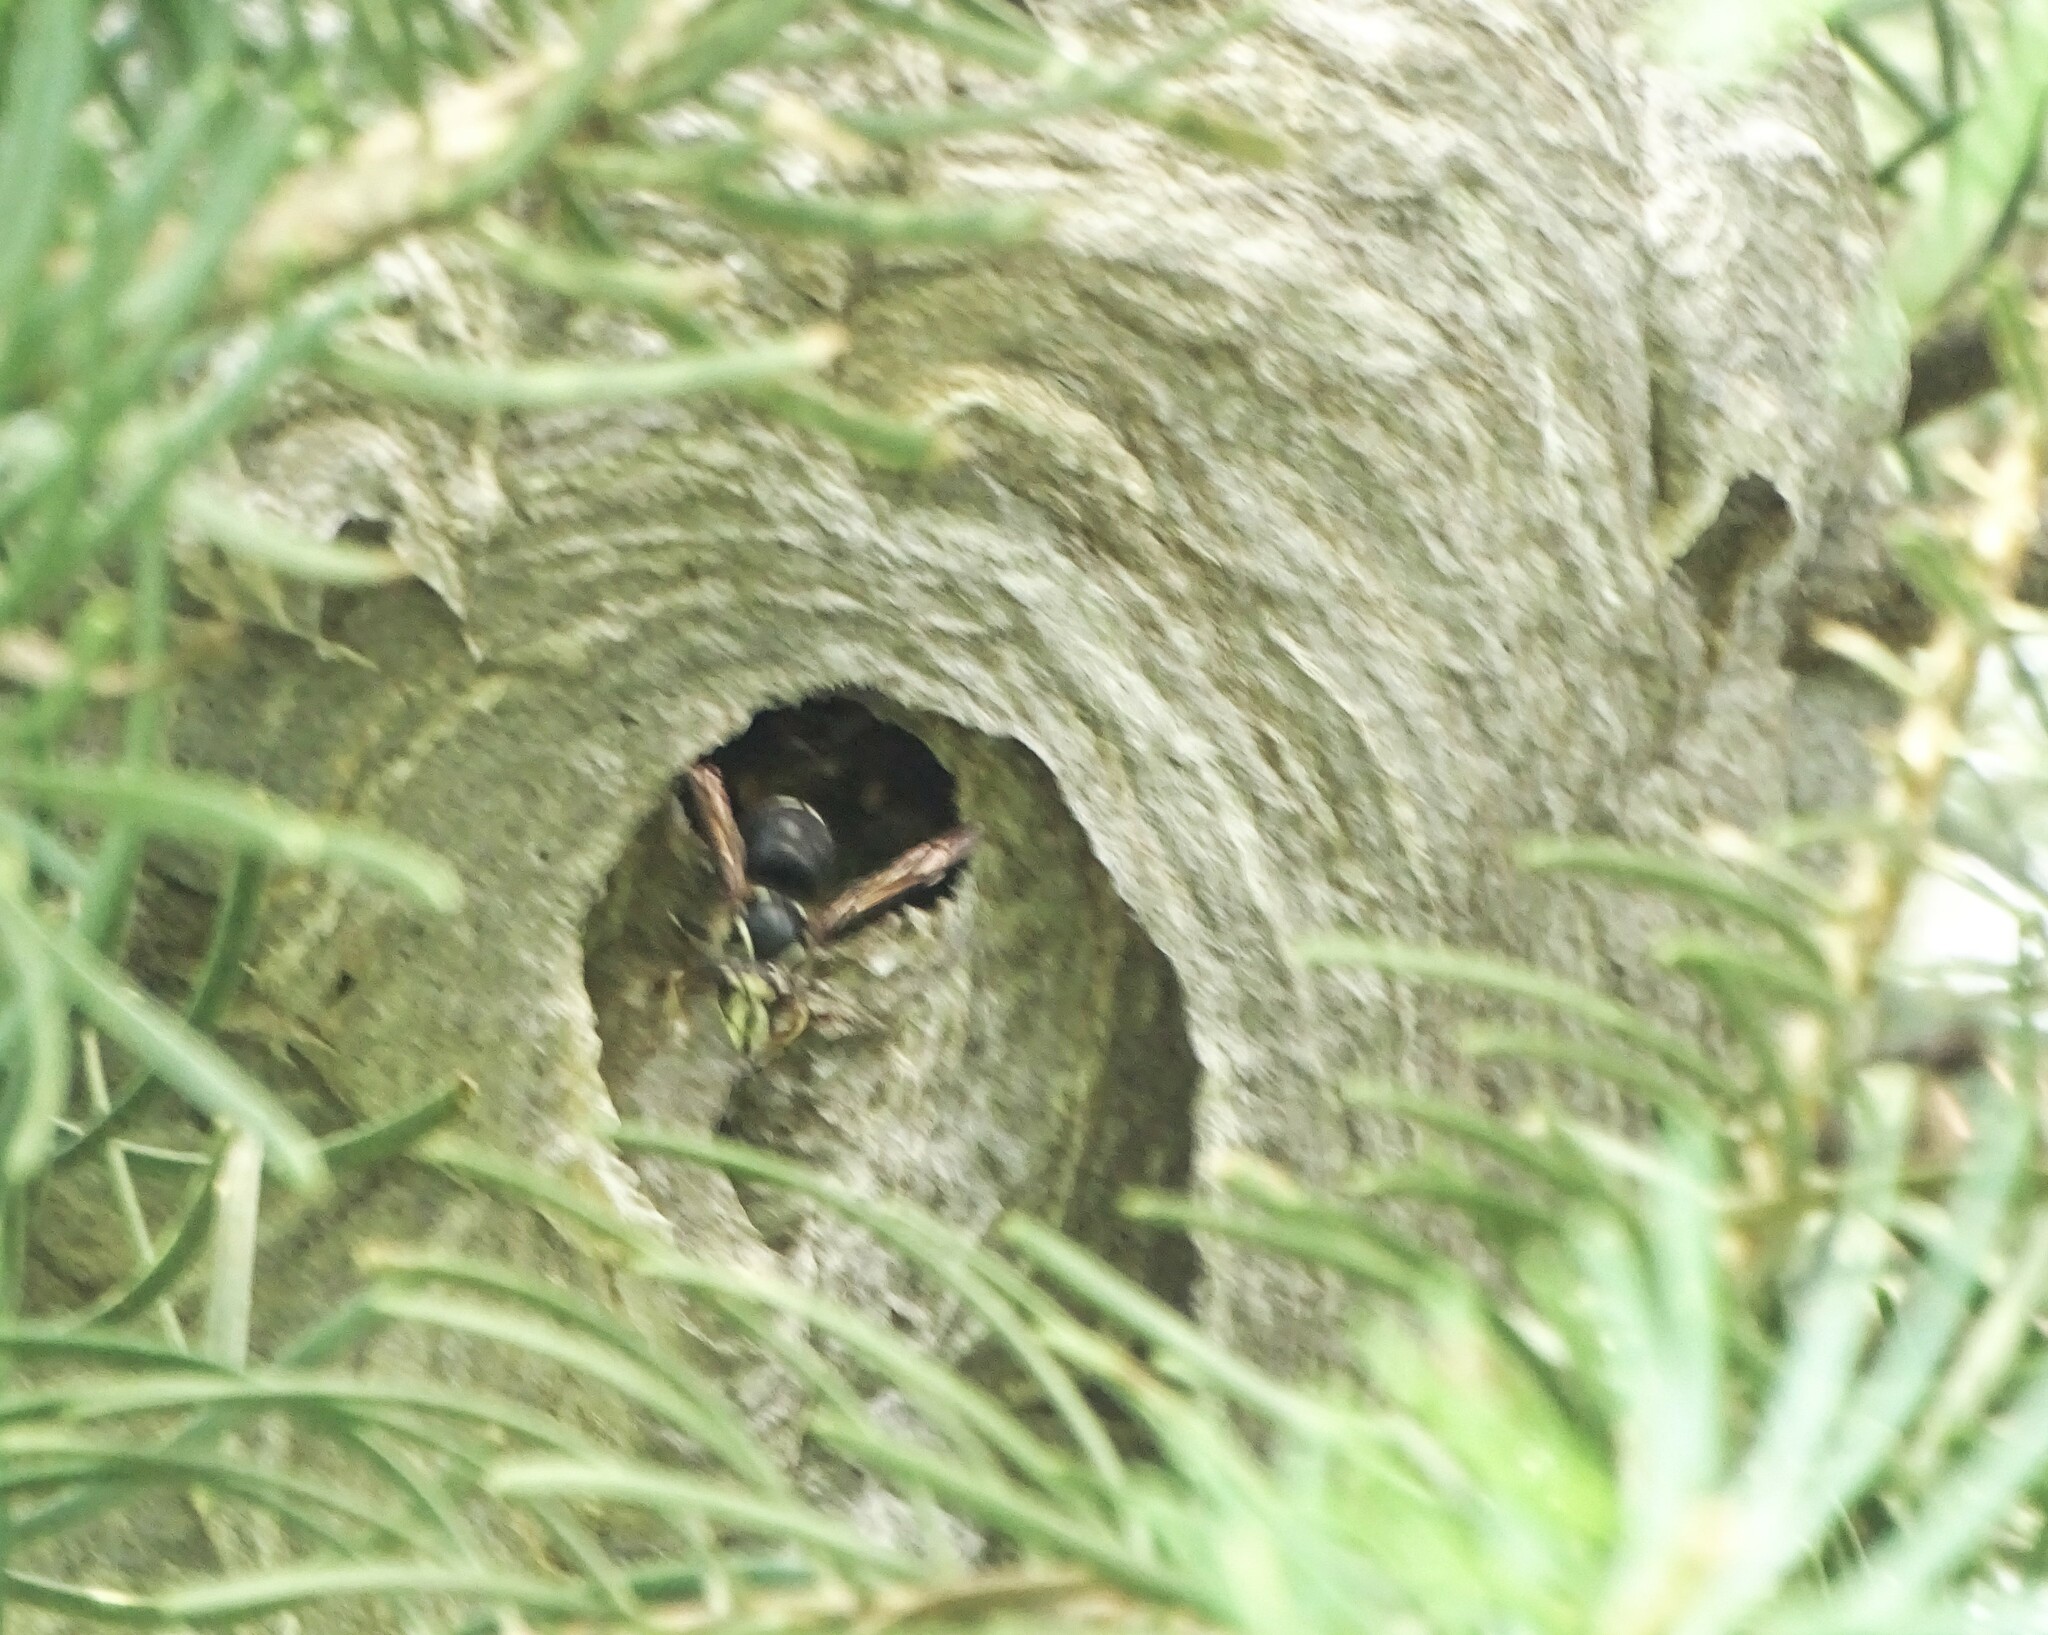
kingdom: Animalia
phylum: Arthropoda
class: Insecta
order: Hymenoptera
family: Vespidae
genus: Dolichovespula
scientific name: Dolichovespula maculata
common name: Bald-faced hornet
